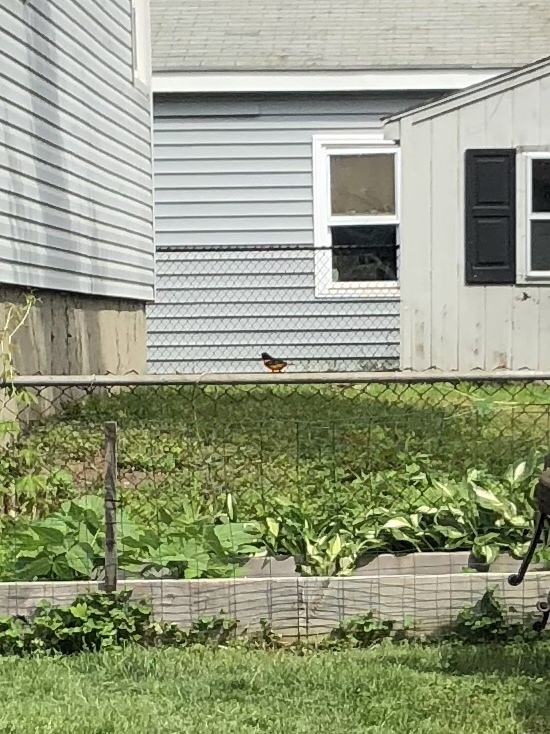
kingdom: Animalia
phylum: Chordata
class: Aves
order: Passeriformes
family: Icteridae
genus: Icterus
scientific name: Icterus galbula
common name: Baltimore oriole
